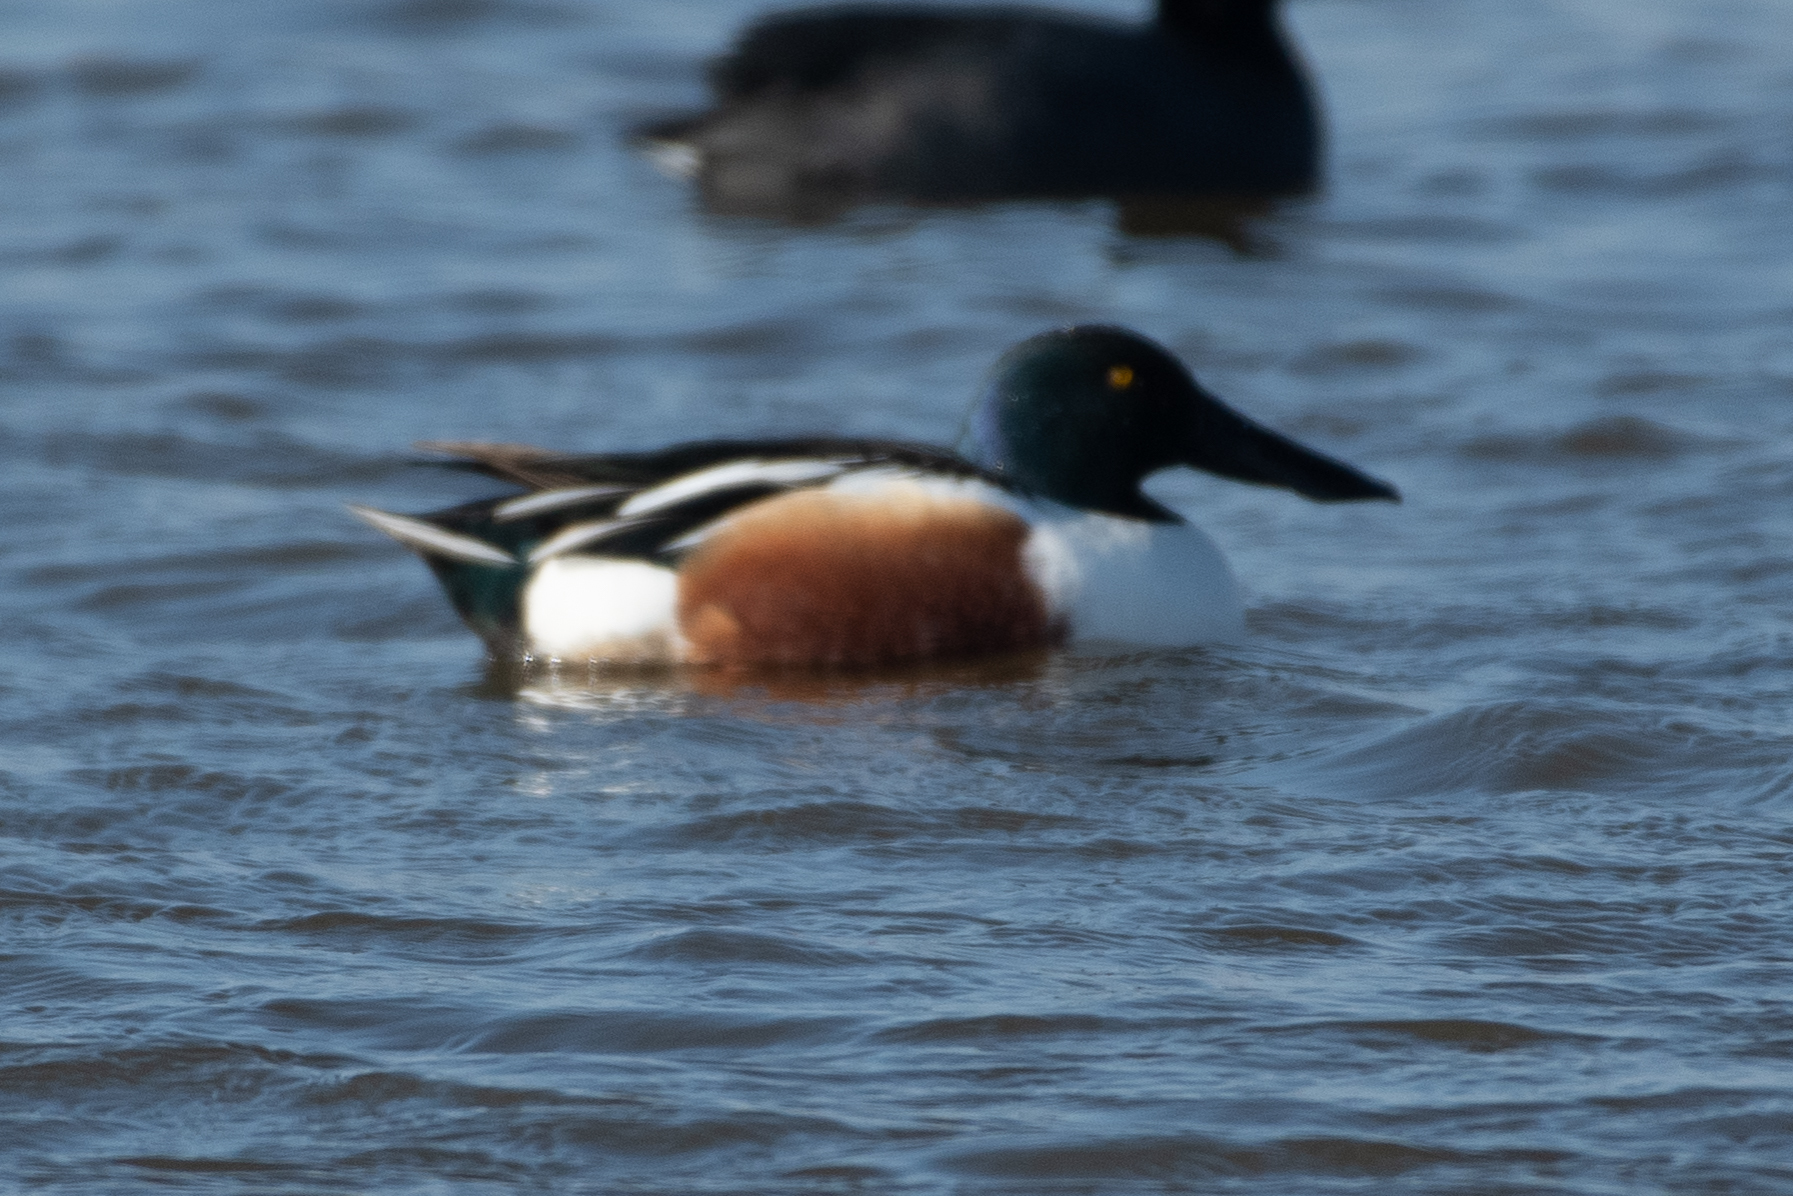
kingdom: Animalia
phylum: Chordata
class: Aves
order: Anseriformes
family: Anatidae
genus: Spatula
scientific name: Spatula clypeata
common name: Northern shoveler
